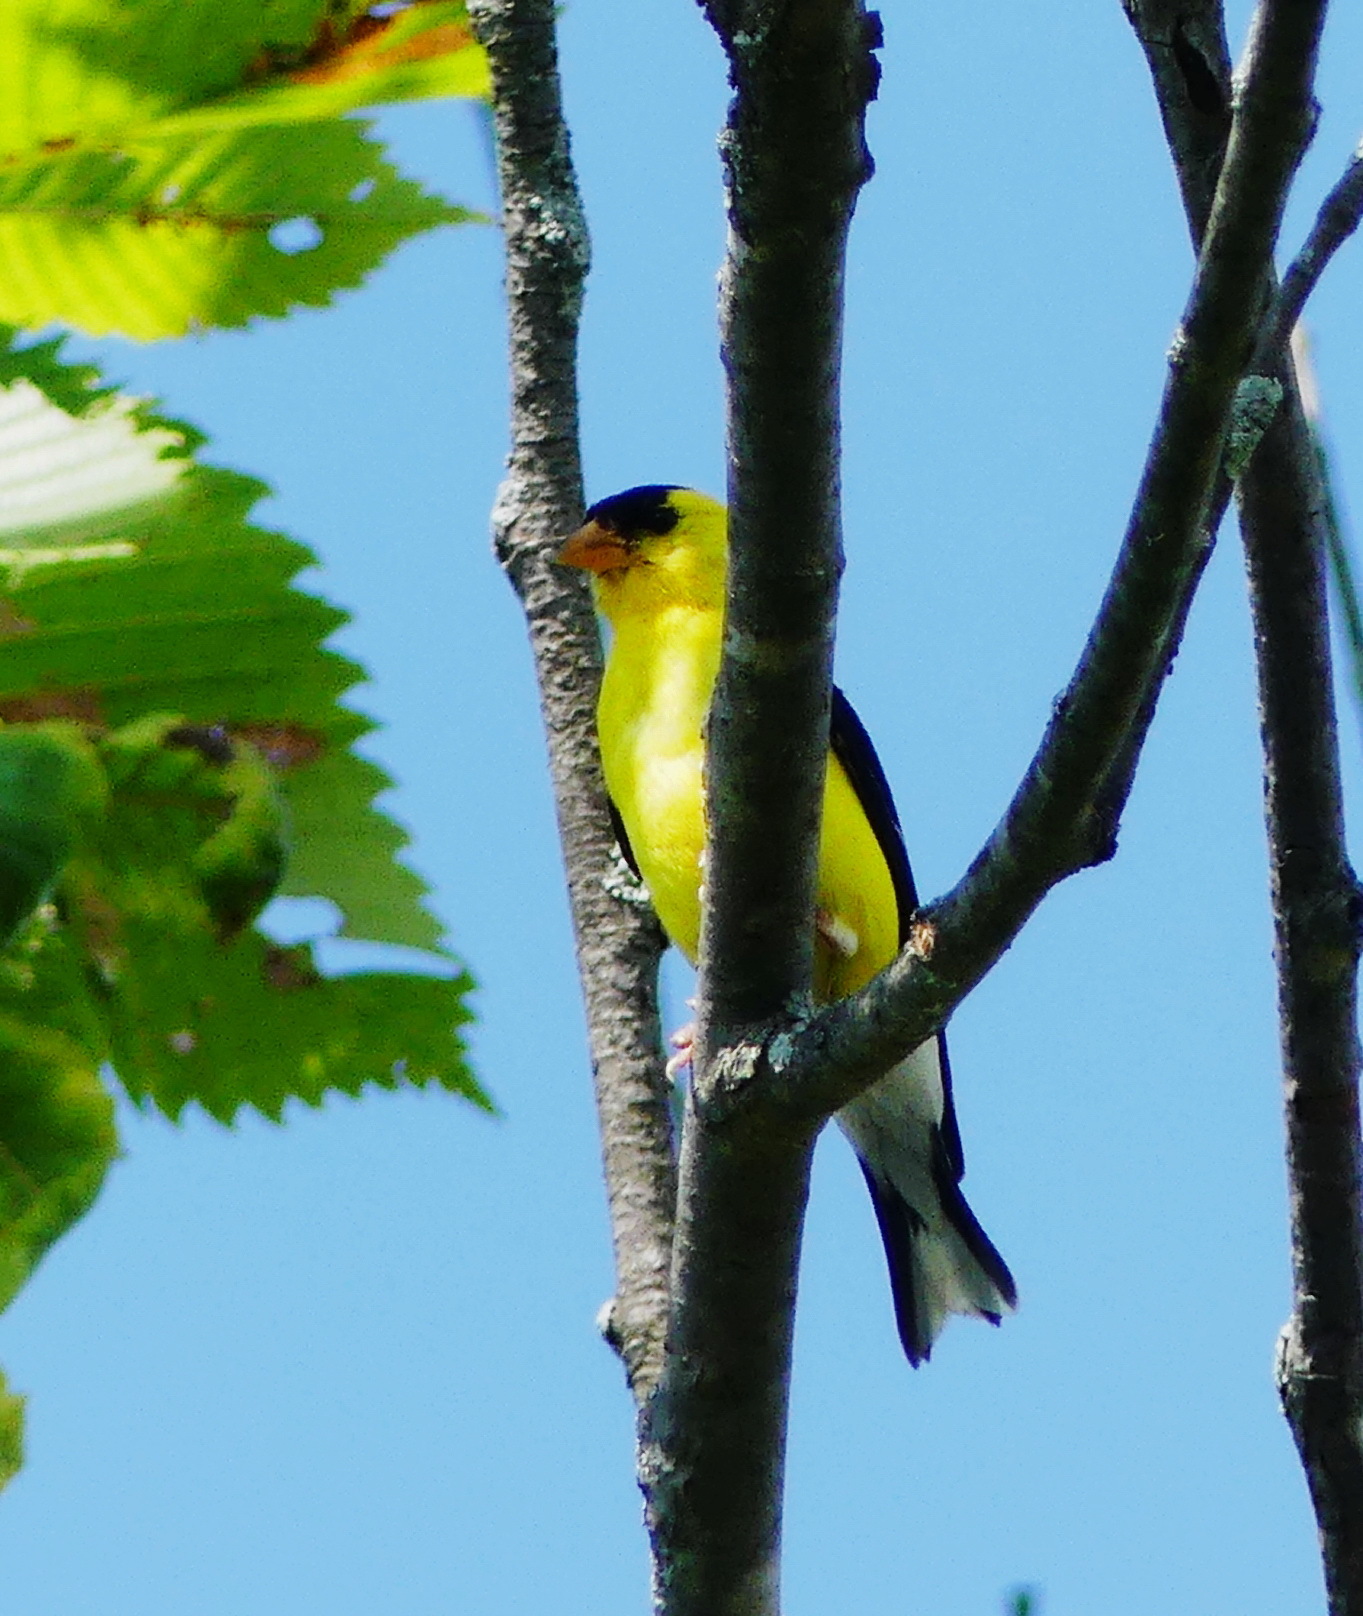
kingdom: Animalia
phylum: Chordata
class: Aves
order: Passeriformes
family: Fringillidae
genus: Spinus
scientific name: Spinus tristis
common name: American goldfinch
